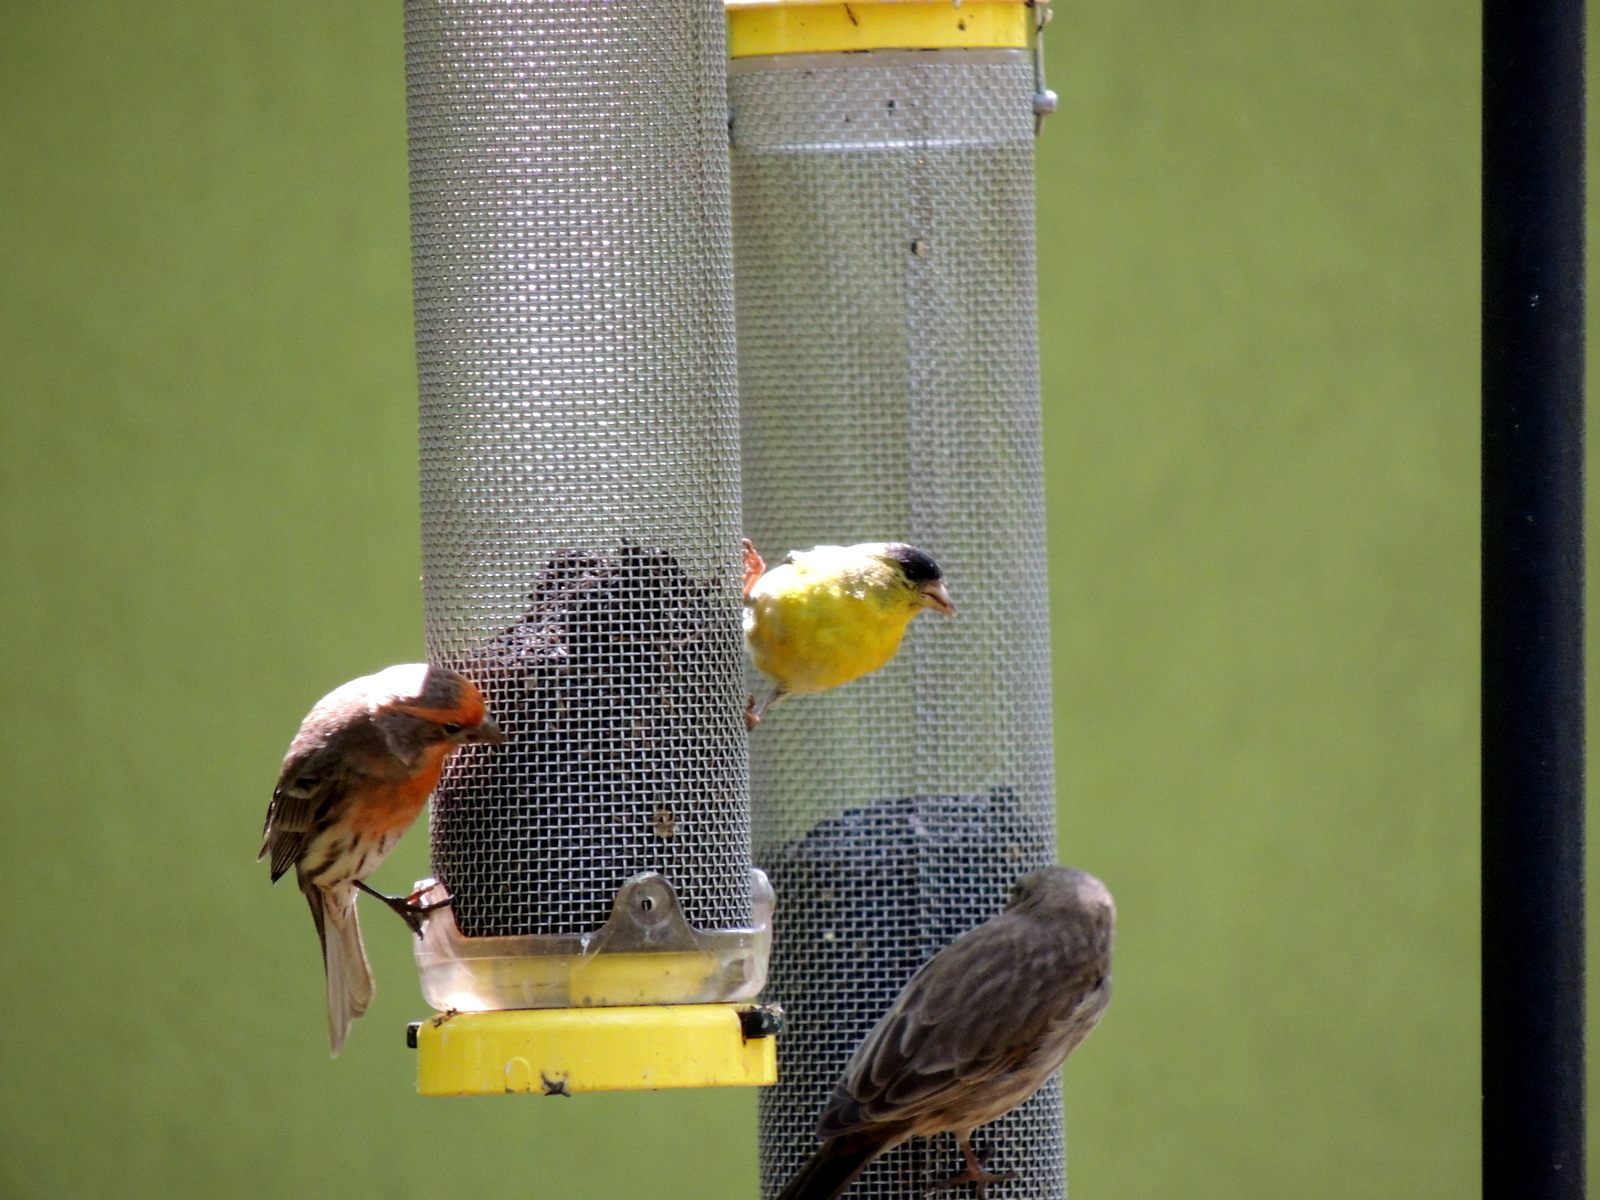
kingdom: Animalia
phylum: Chordata
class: Aves
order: Passeriformes
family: Fringillidae
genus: Haemorhous
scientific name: Haemorhous mexicanus
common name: House finch
